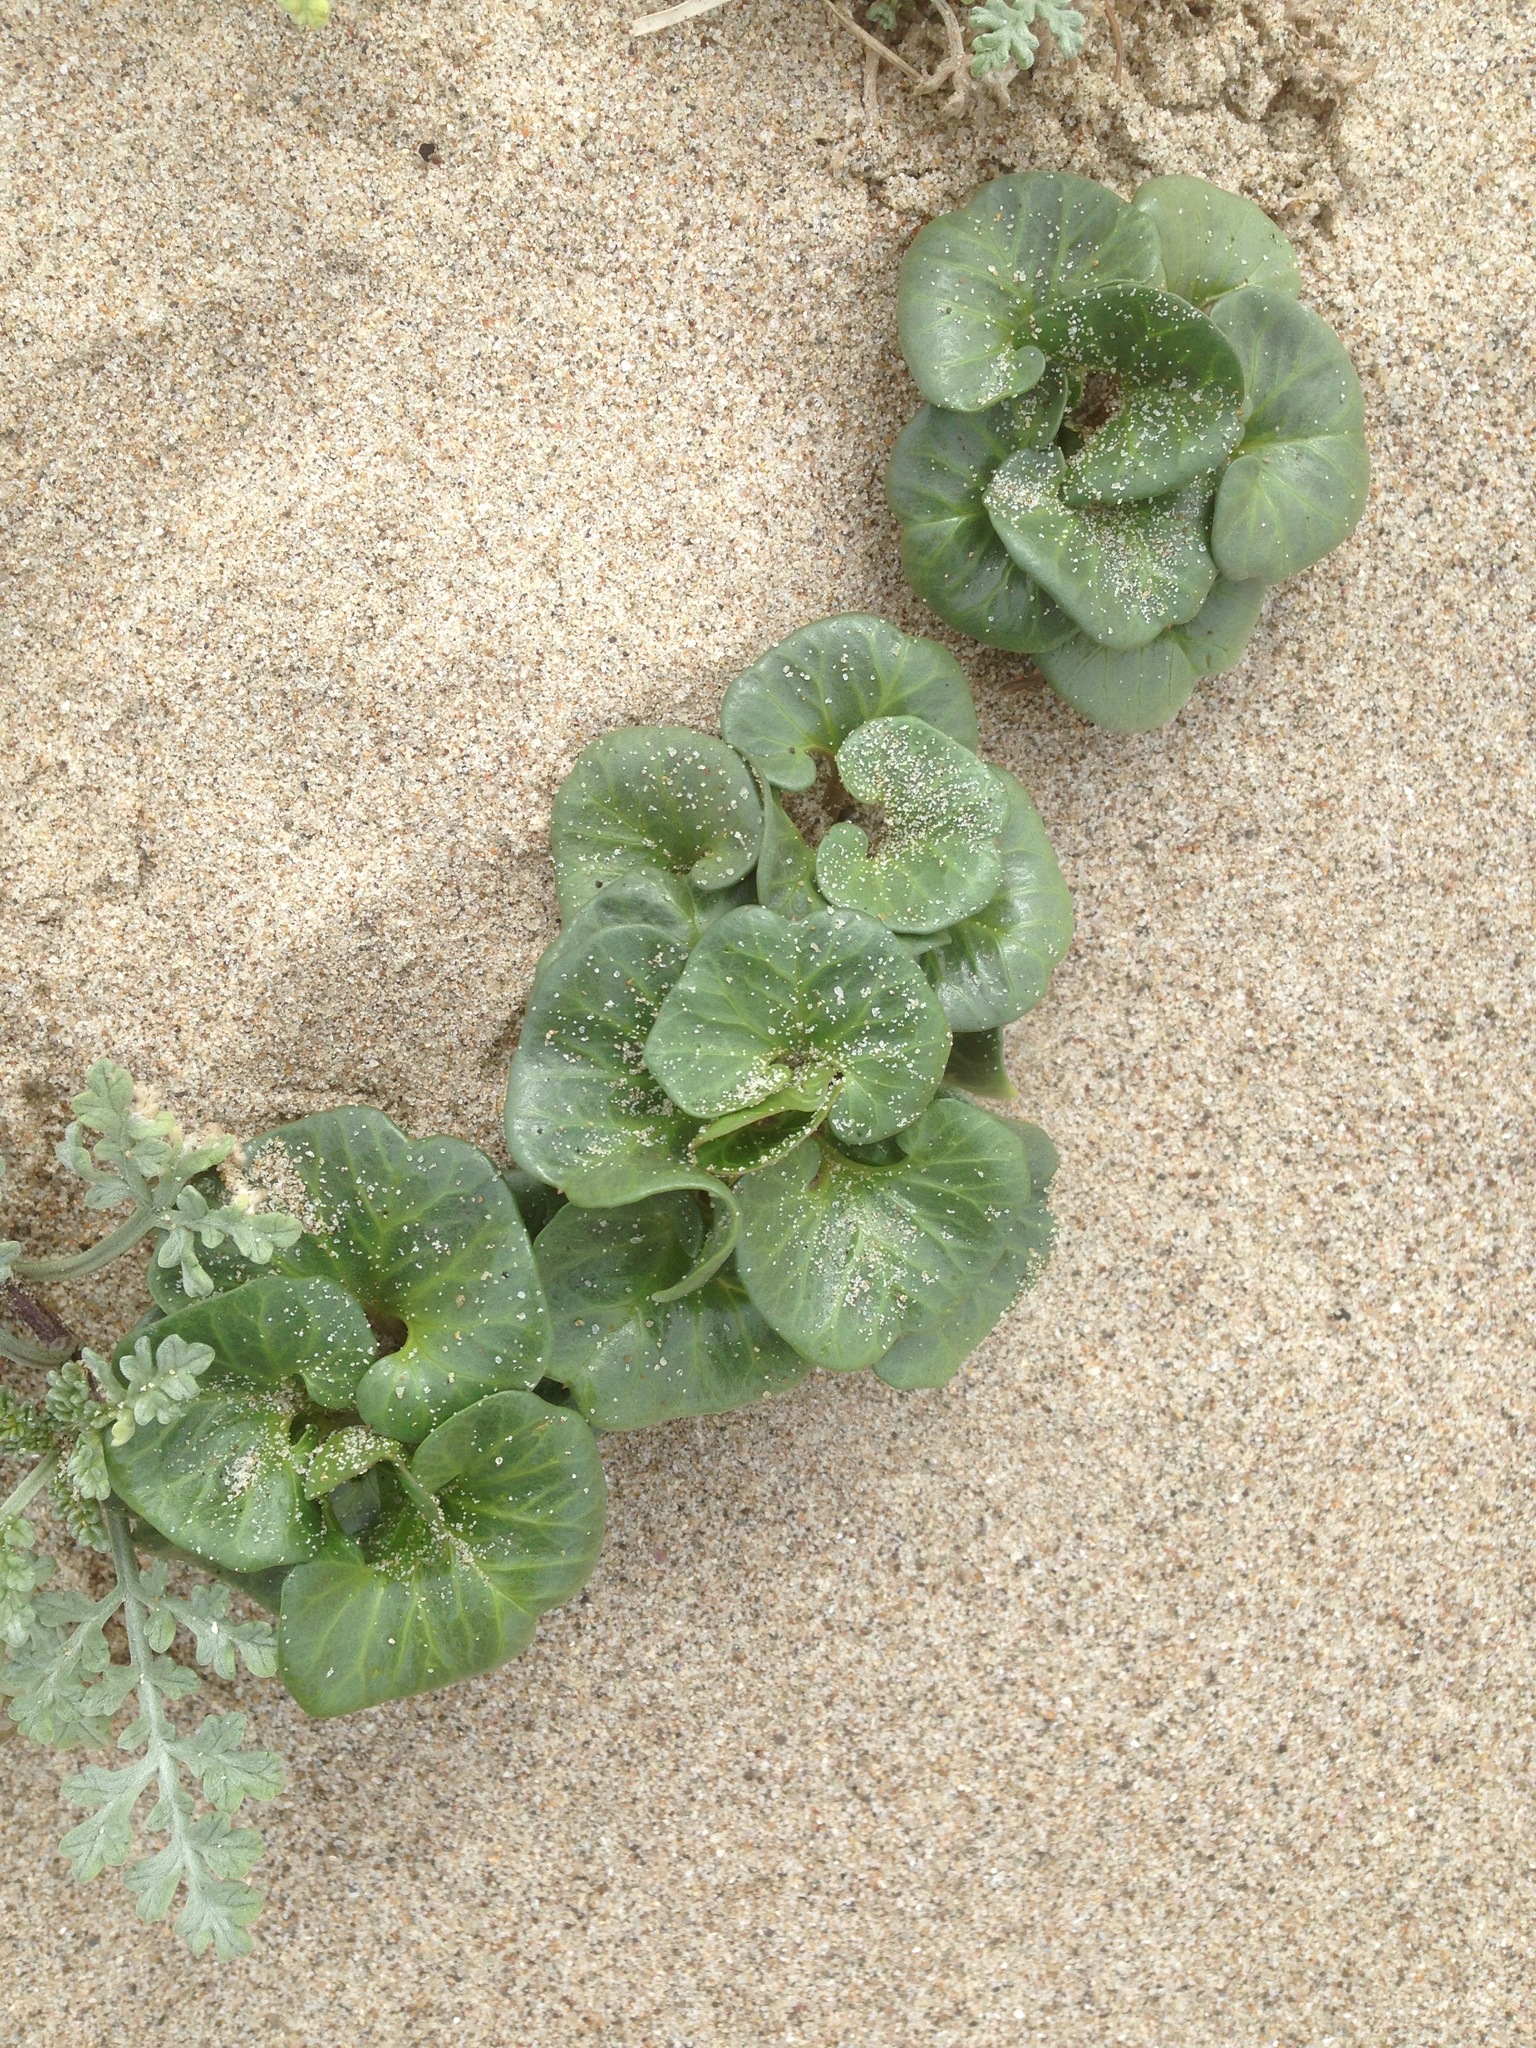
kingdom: Plantae
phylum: Tracheophyta
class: Magnoliopsida
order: Solanales
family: Convolvulaceae
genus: Calystegia
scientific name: Calystegia soldanella
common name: Sea bindweed
